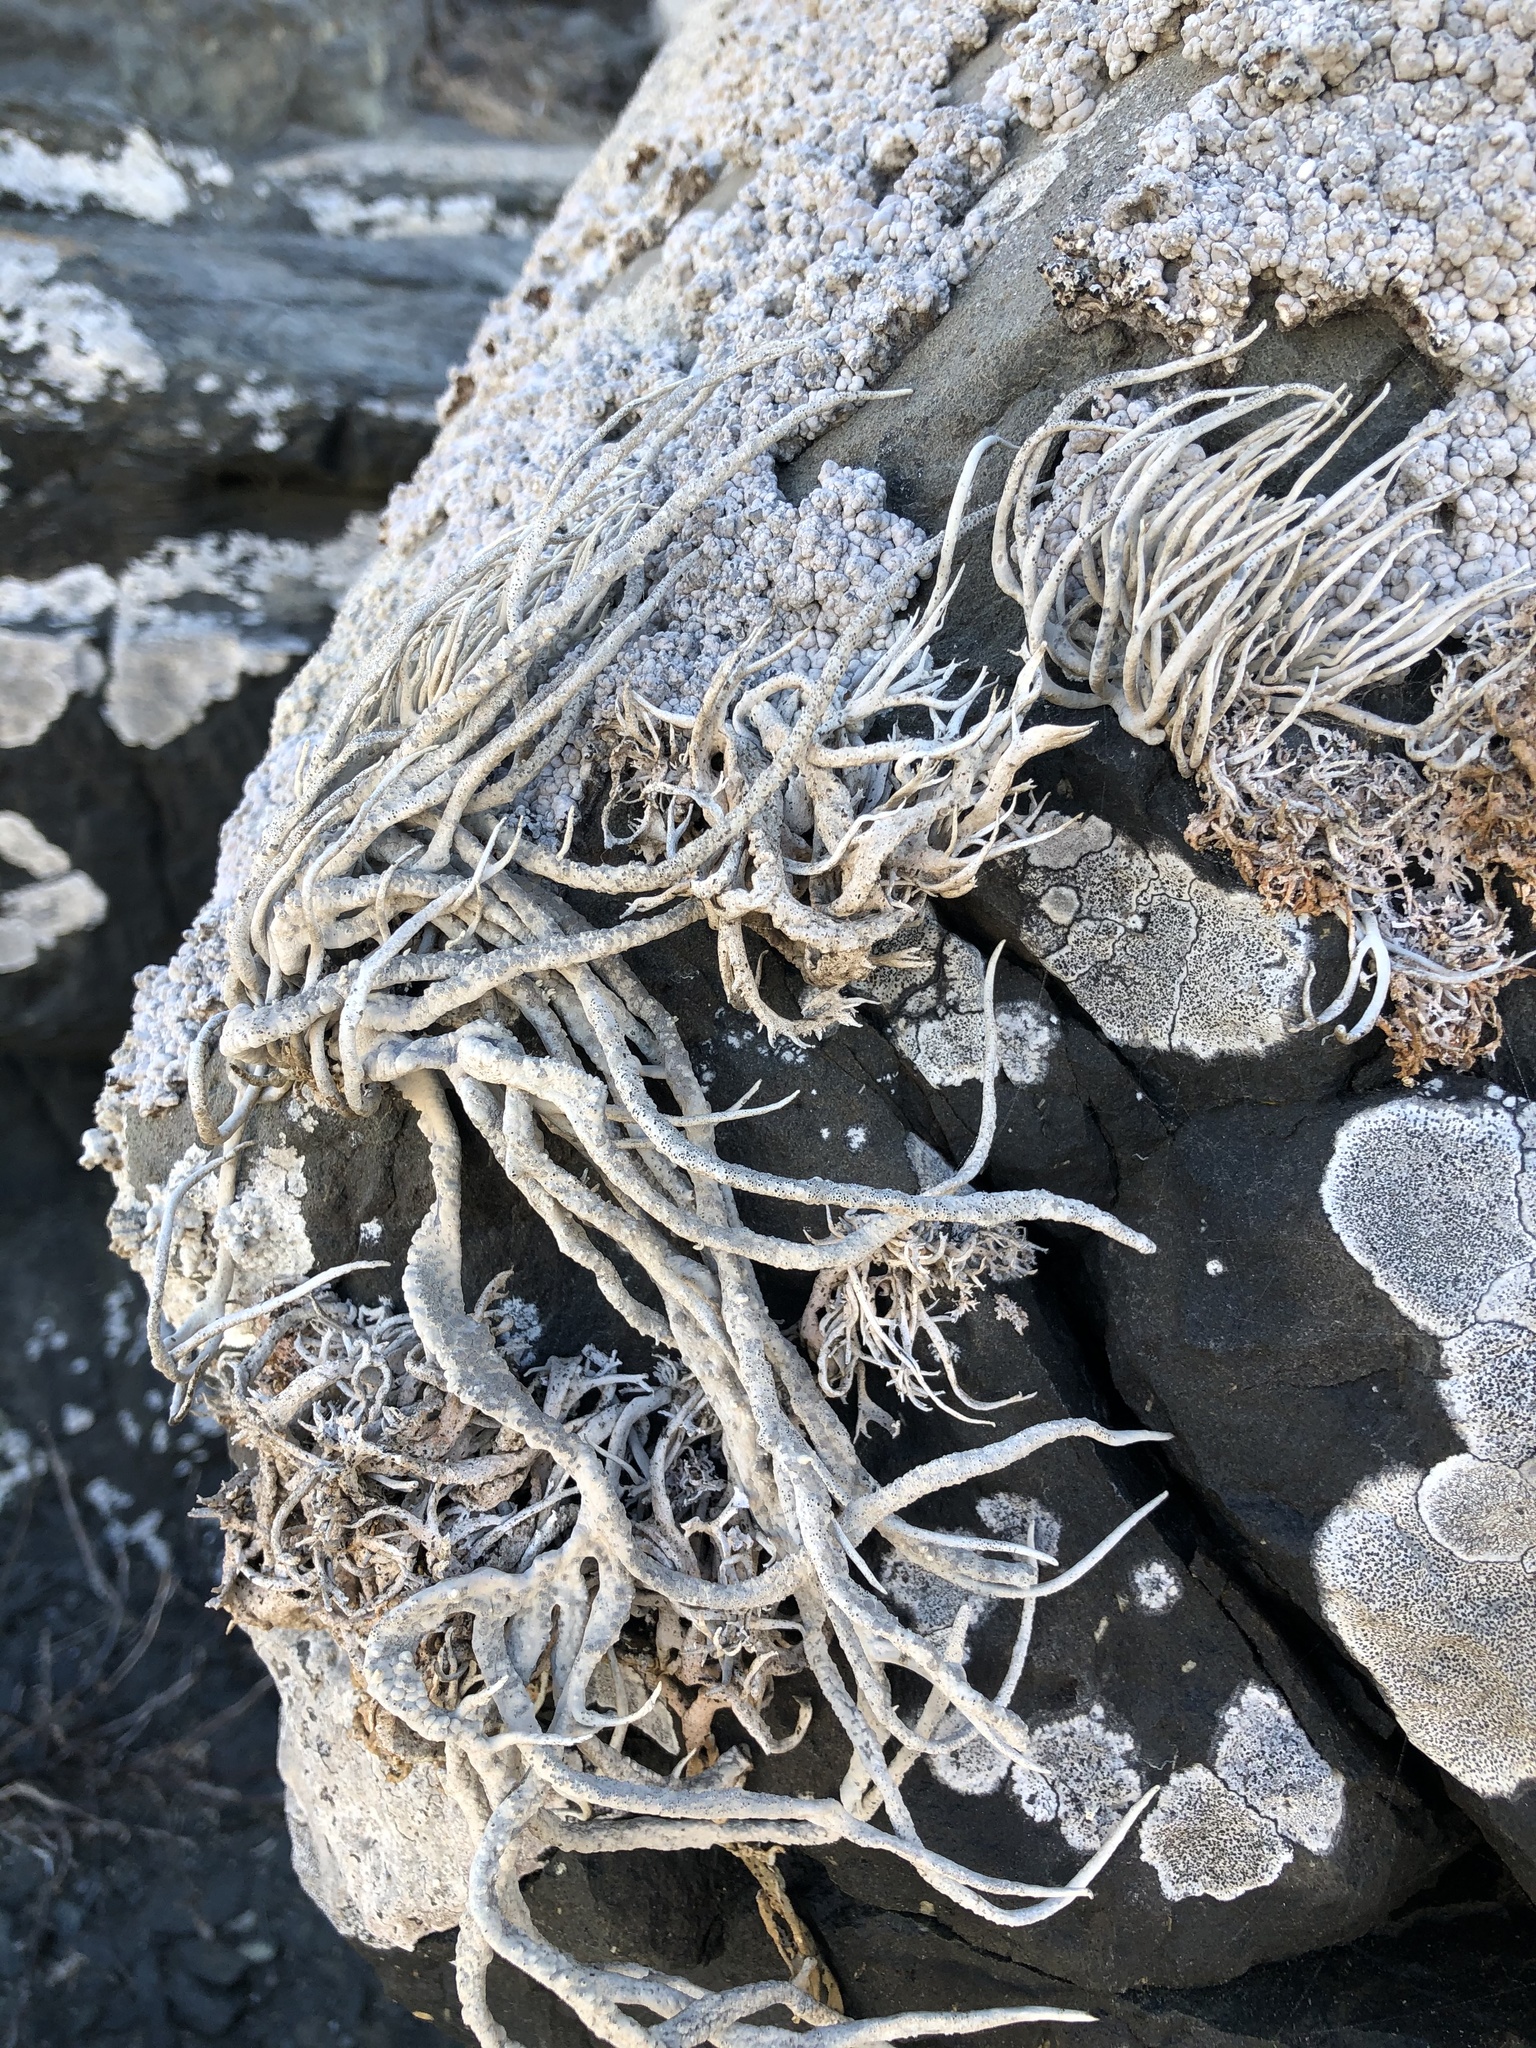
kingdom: Fungi
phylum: Ascomycota
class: Arthoniomycetes
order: Arthoniales
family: Roccellaceae
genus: Austroroccella
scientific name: Austroroccella gayana
